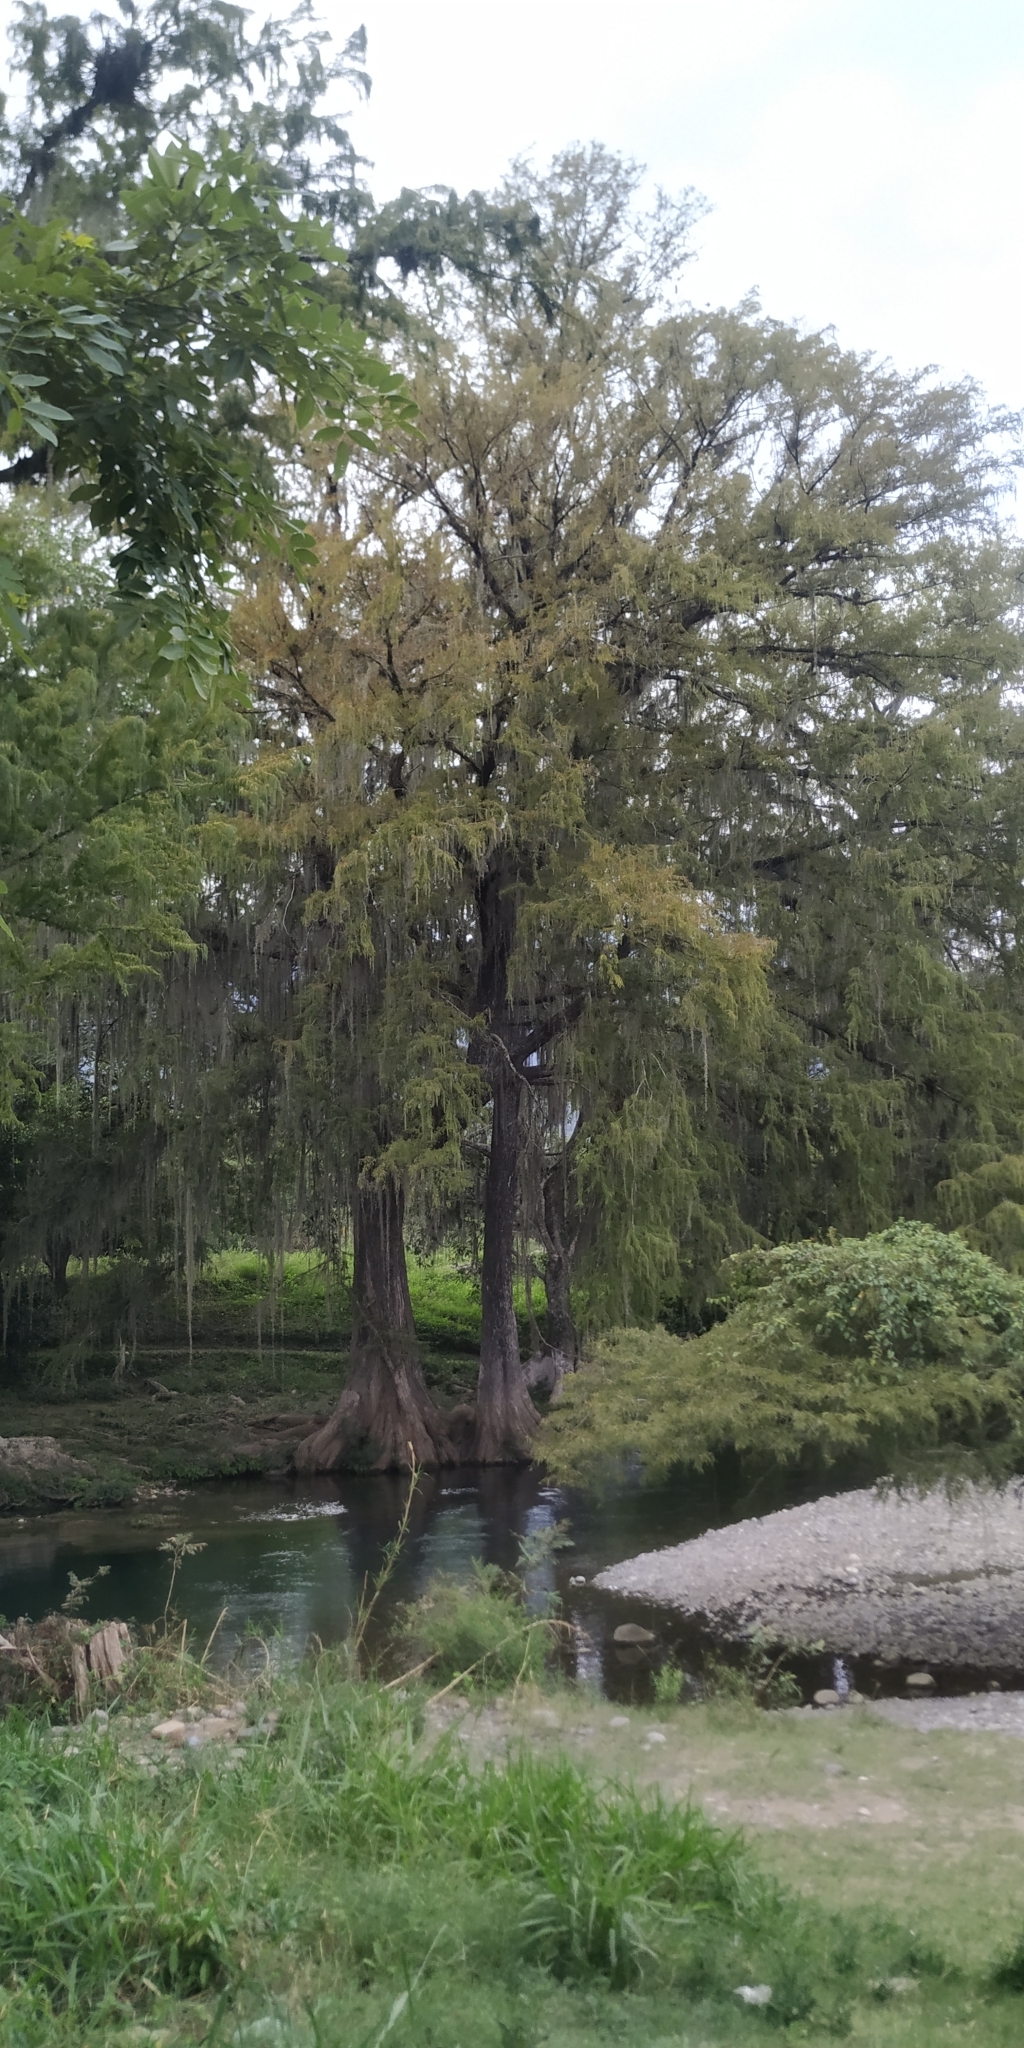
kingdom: Plantae
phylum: Tracheophyta
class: Pinopsida
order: Pinales
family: Cupressaceae
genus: Taxodium
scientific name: Taxodium mucronatum
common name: Montezume bald cypress
